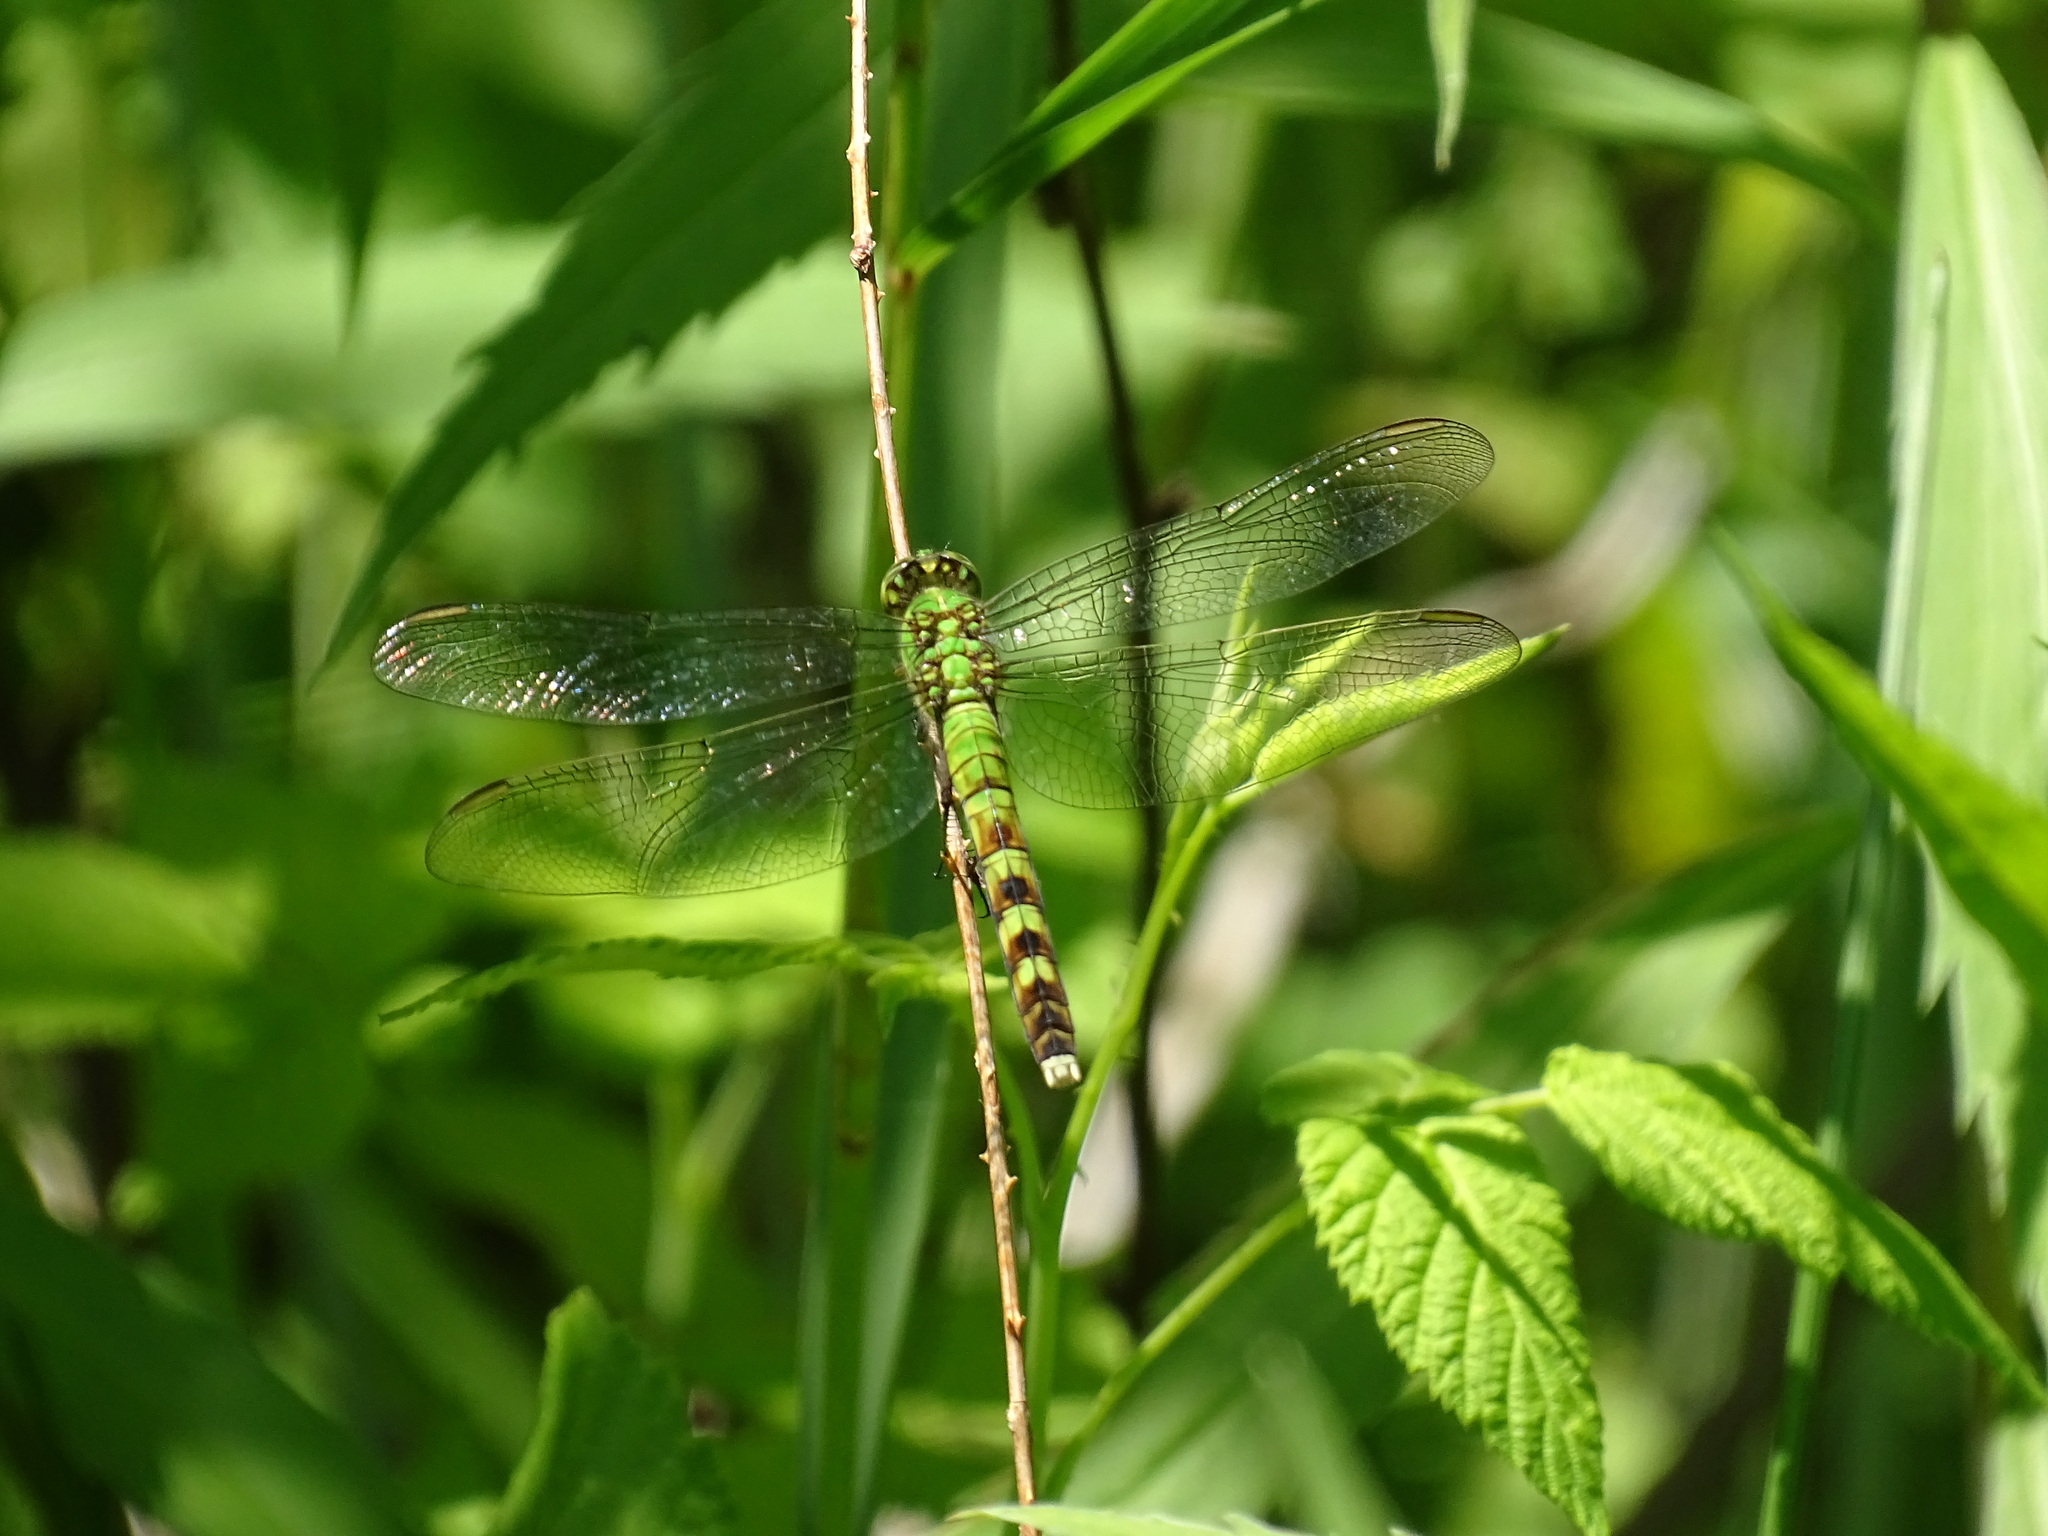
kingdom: Animalia
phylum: Arthropoda
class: Insecta
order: Odonata
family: Libellulidae
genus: Erythemis
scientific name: Erythemis simplicicollis
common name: Eastern pondhawk
